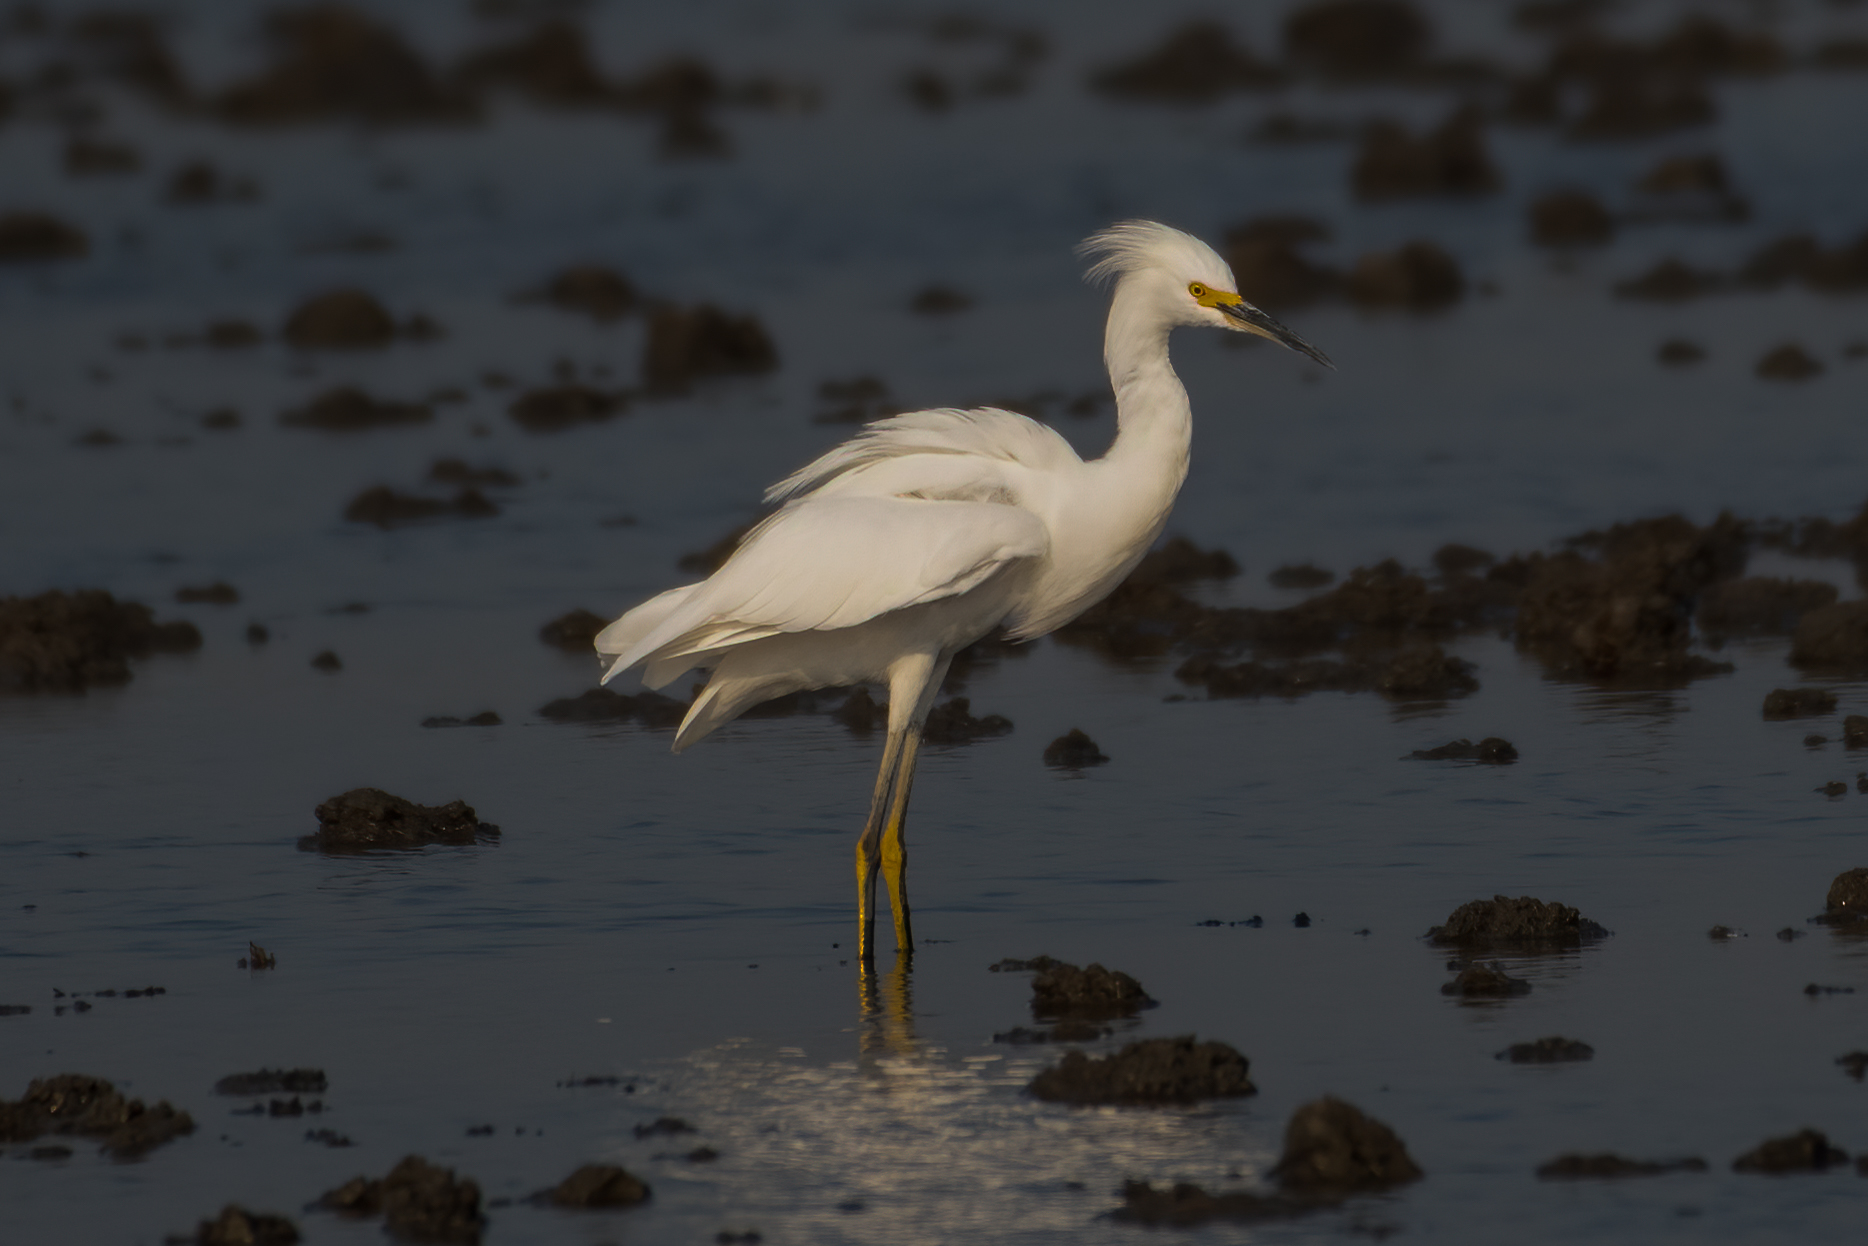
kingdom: Animalia
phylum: Chordata
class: Aves
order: Pelecaniformes
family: Ardeidae
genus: Egretta
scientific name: Egretta thula
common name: Snowy egret
